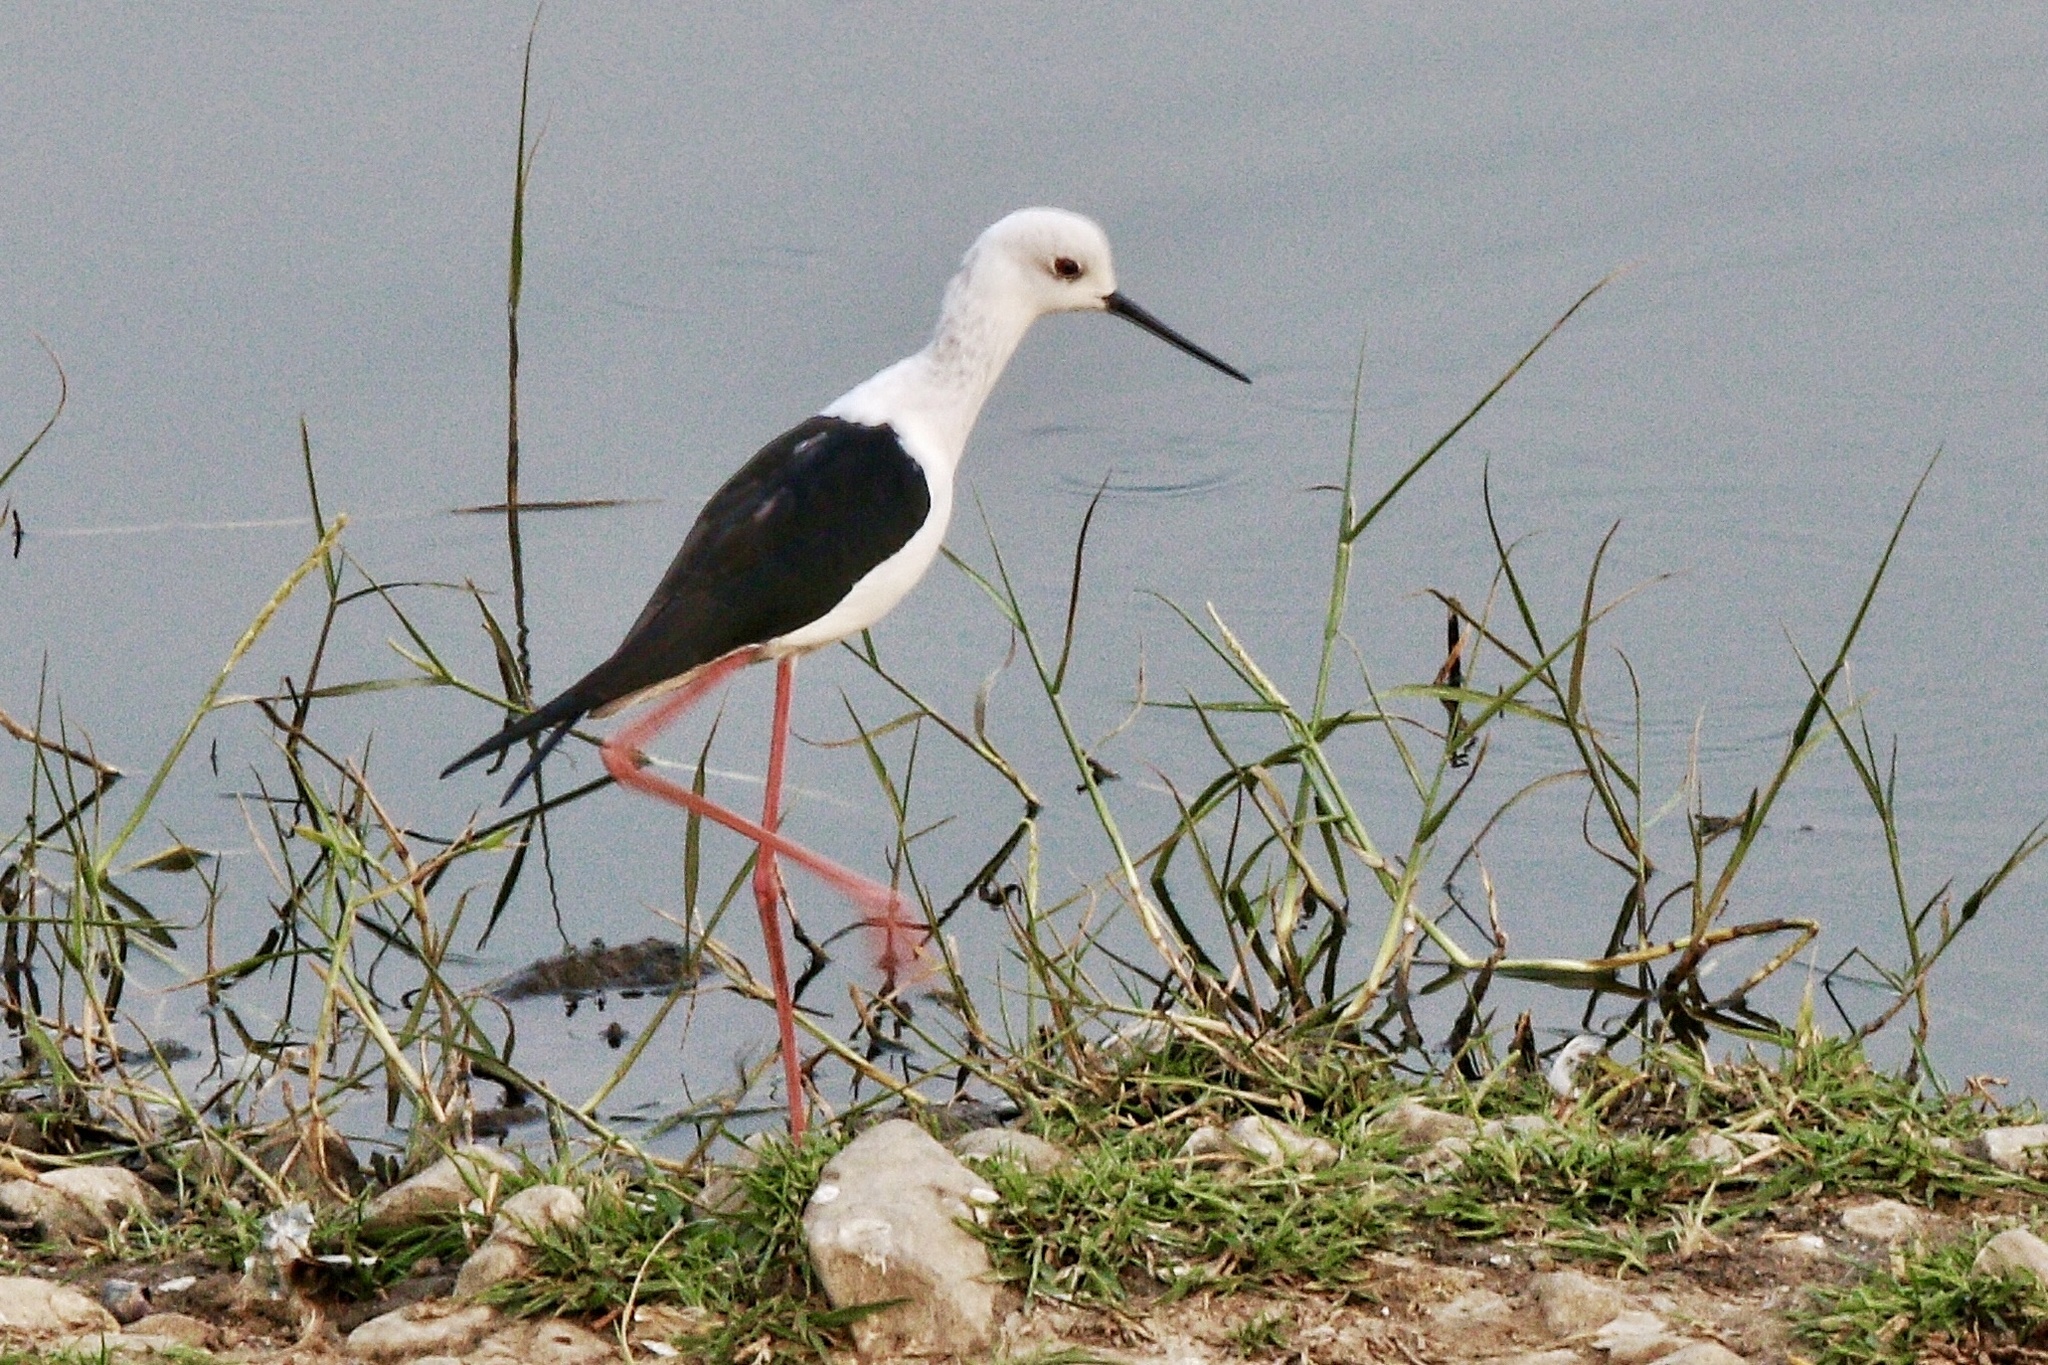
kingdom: Animalia
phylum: Chordata
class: Aves
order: Charadriiformes
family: Recurvirostridae
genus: Himantopus
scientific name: Himantopus himantopus
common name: Black-winged stilt
